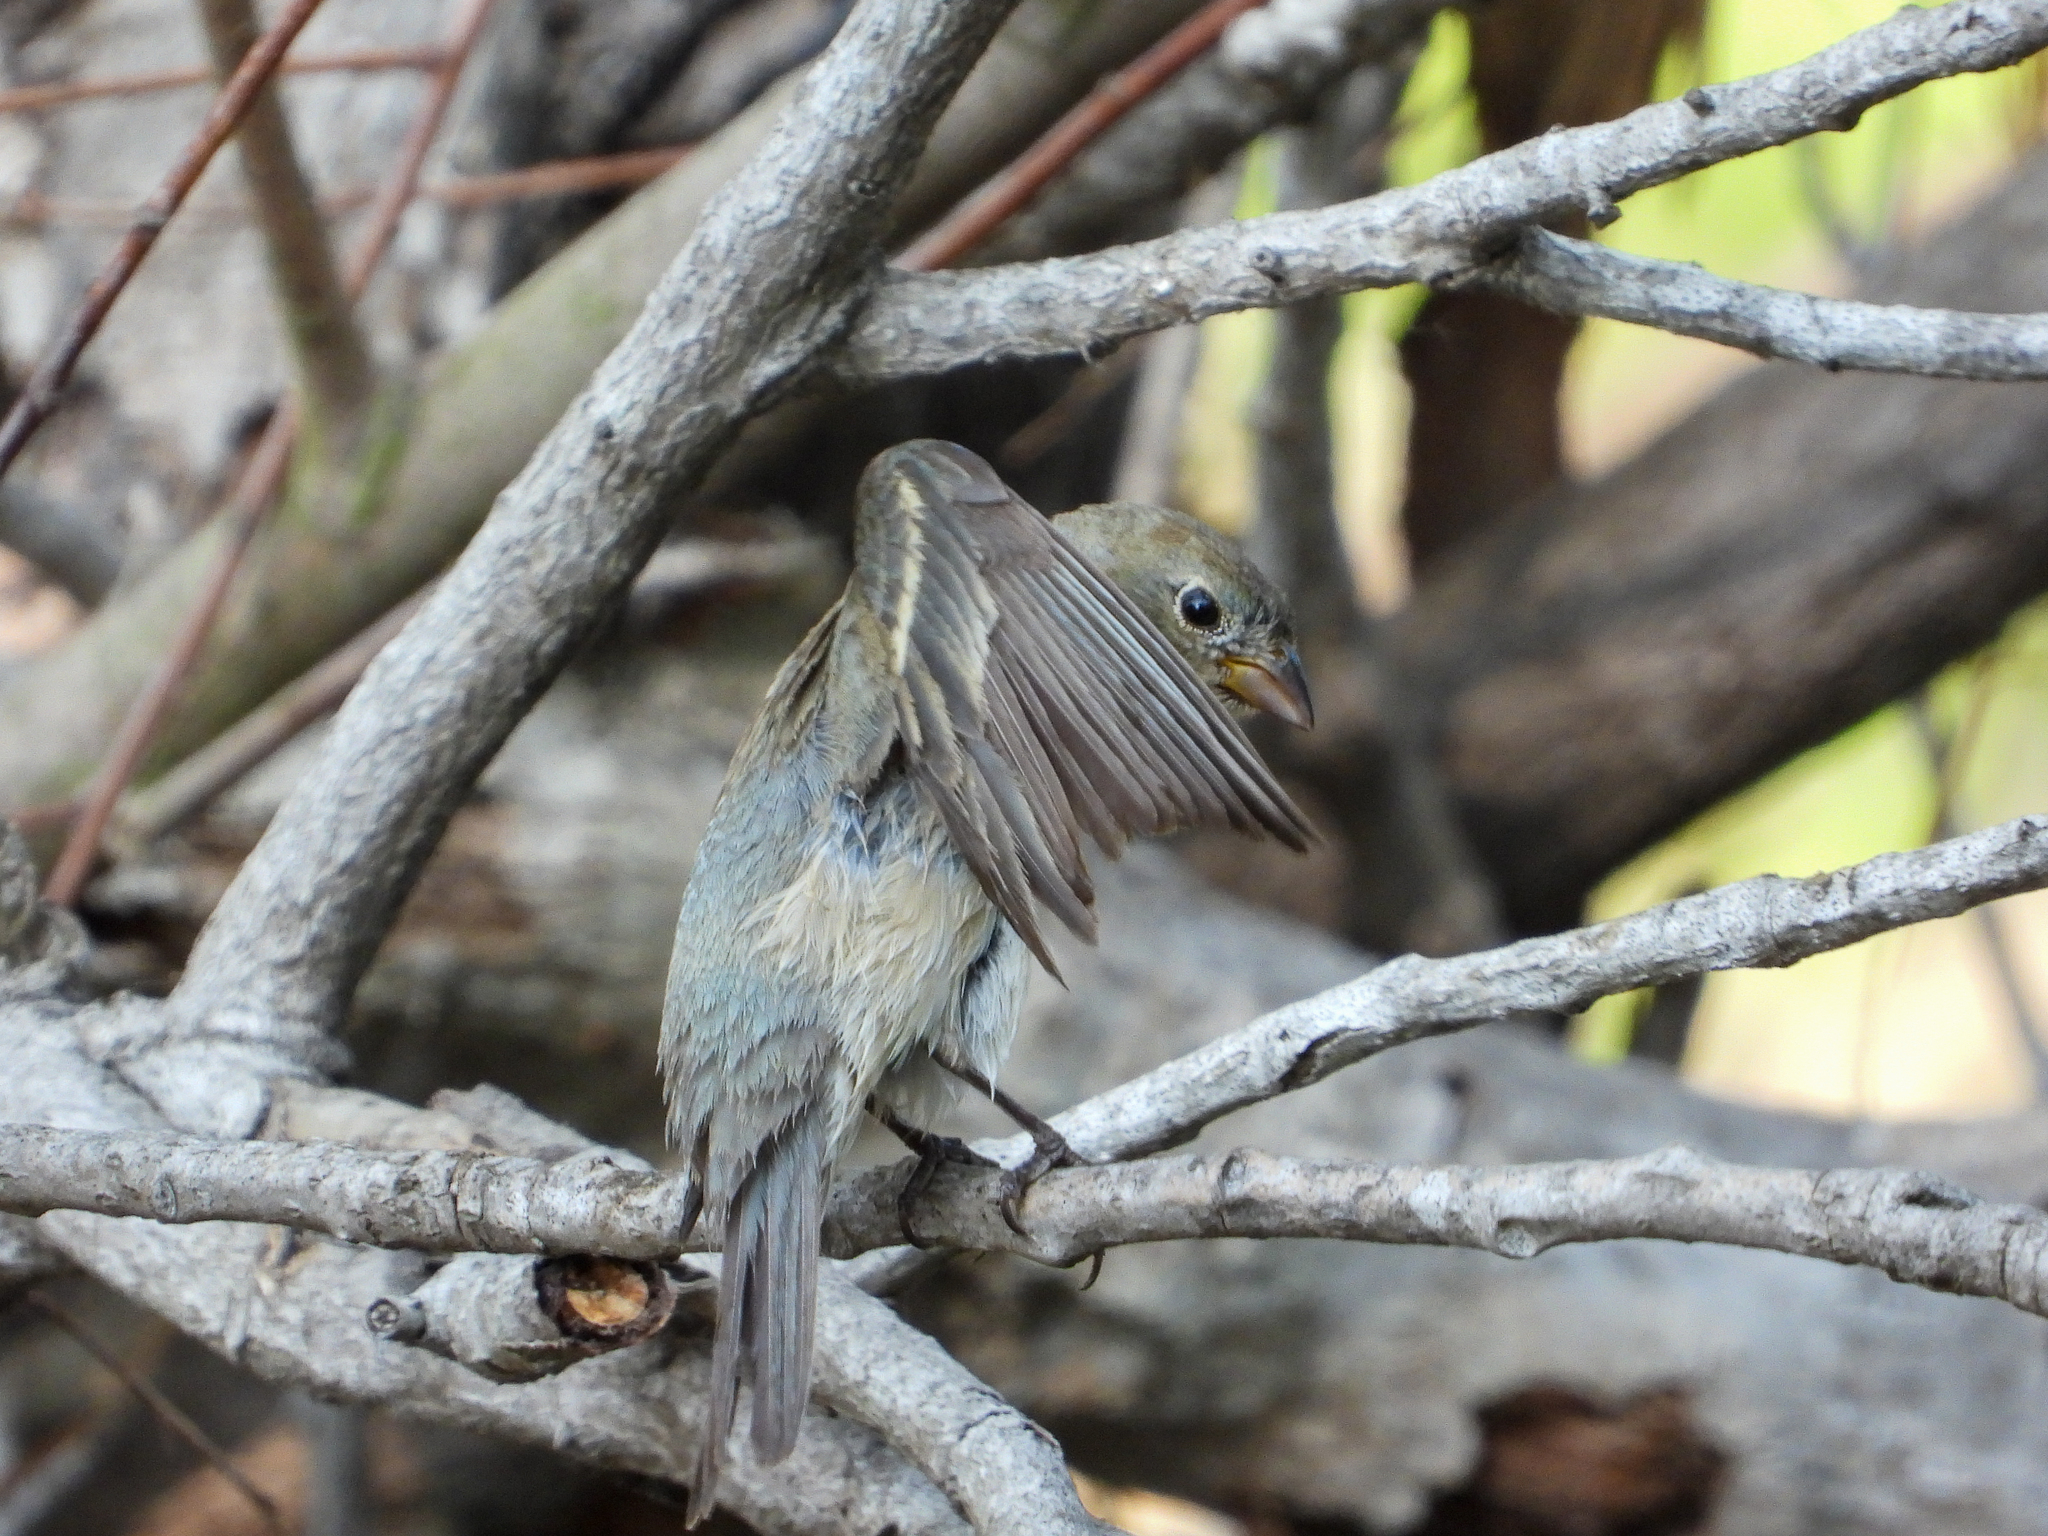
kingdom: Animalia
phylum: Chordata
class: Aves
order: Passeriformes
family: Cardinalidae
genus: Passerina
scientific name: Passerina amoena
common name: Lazuli bunting
